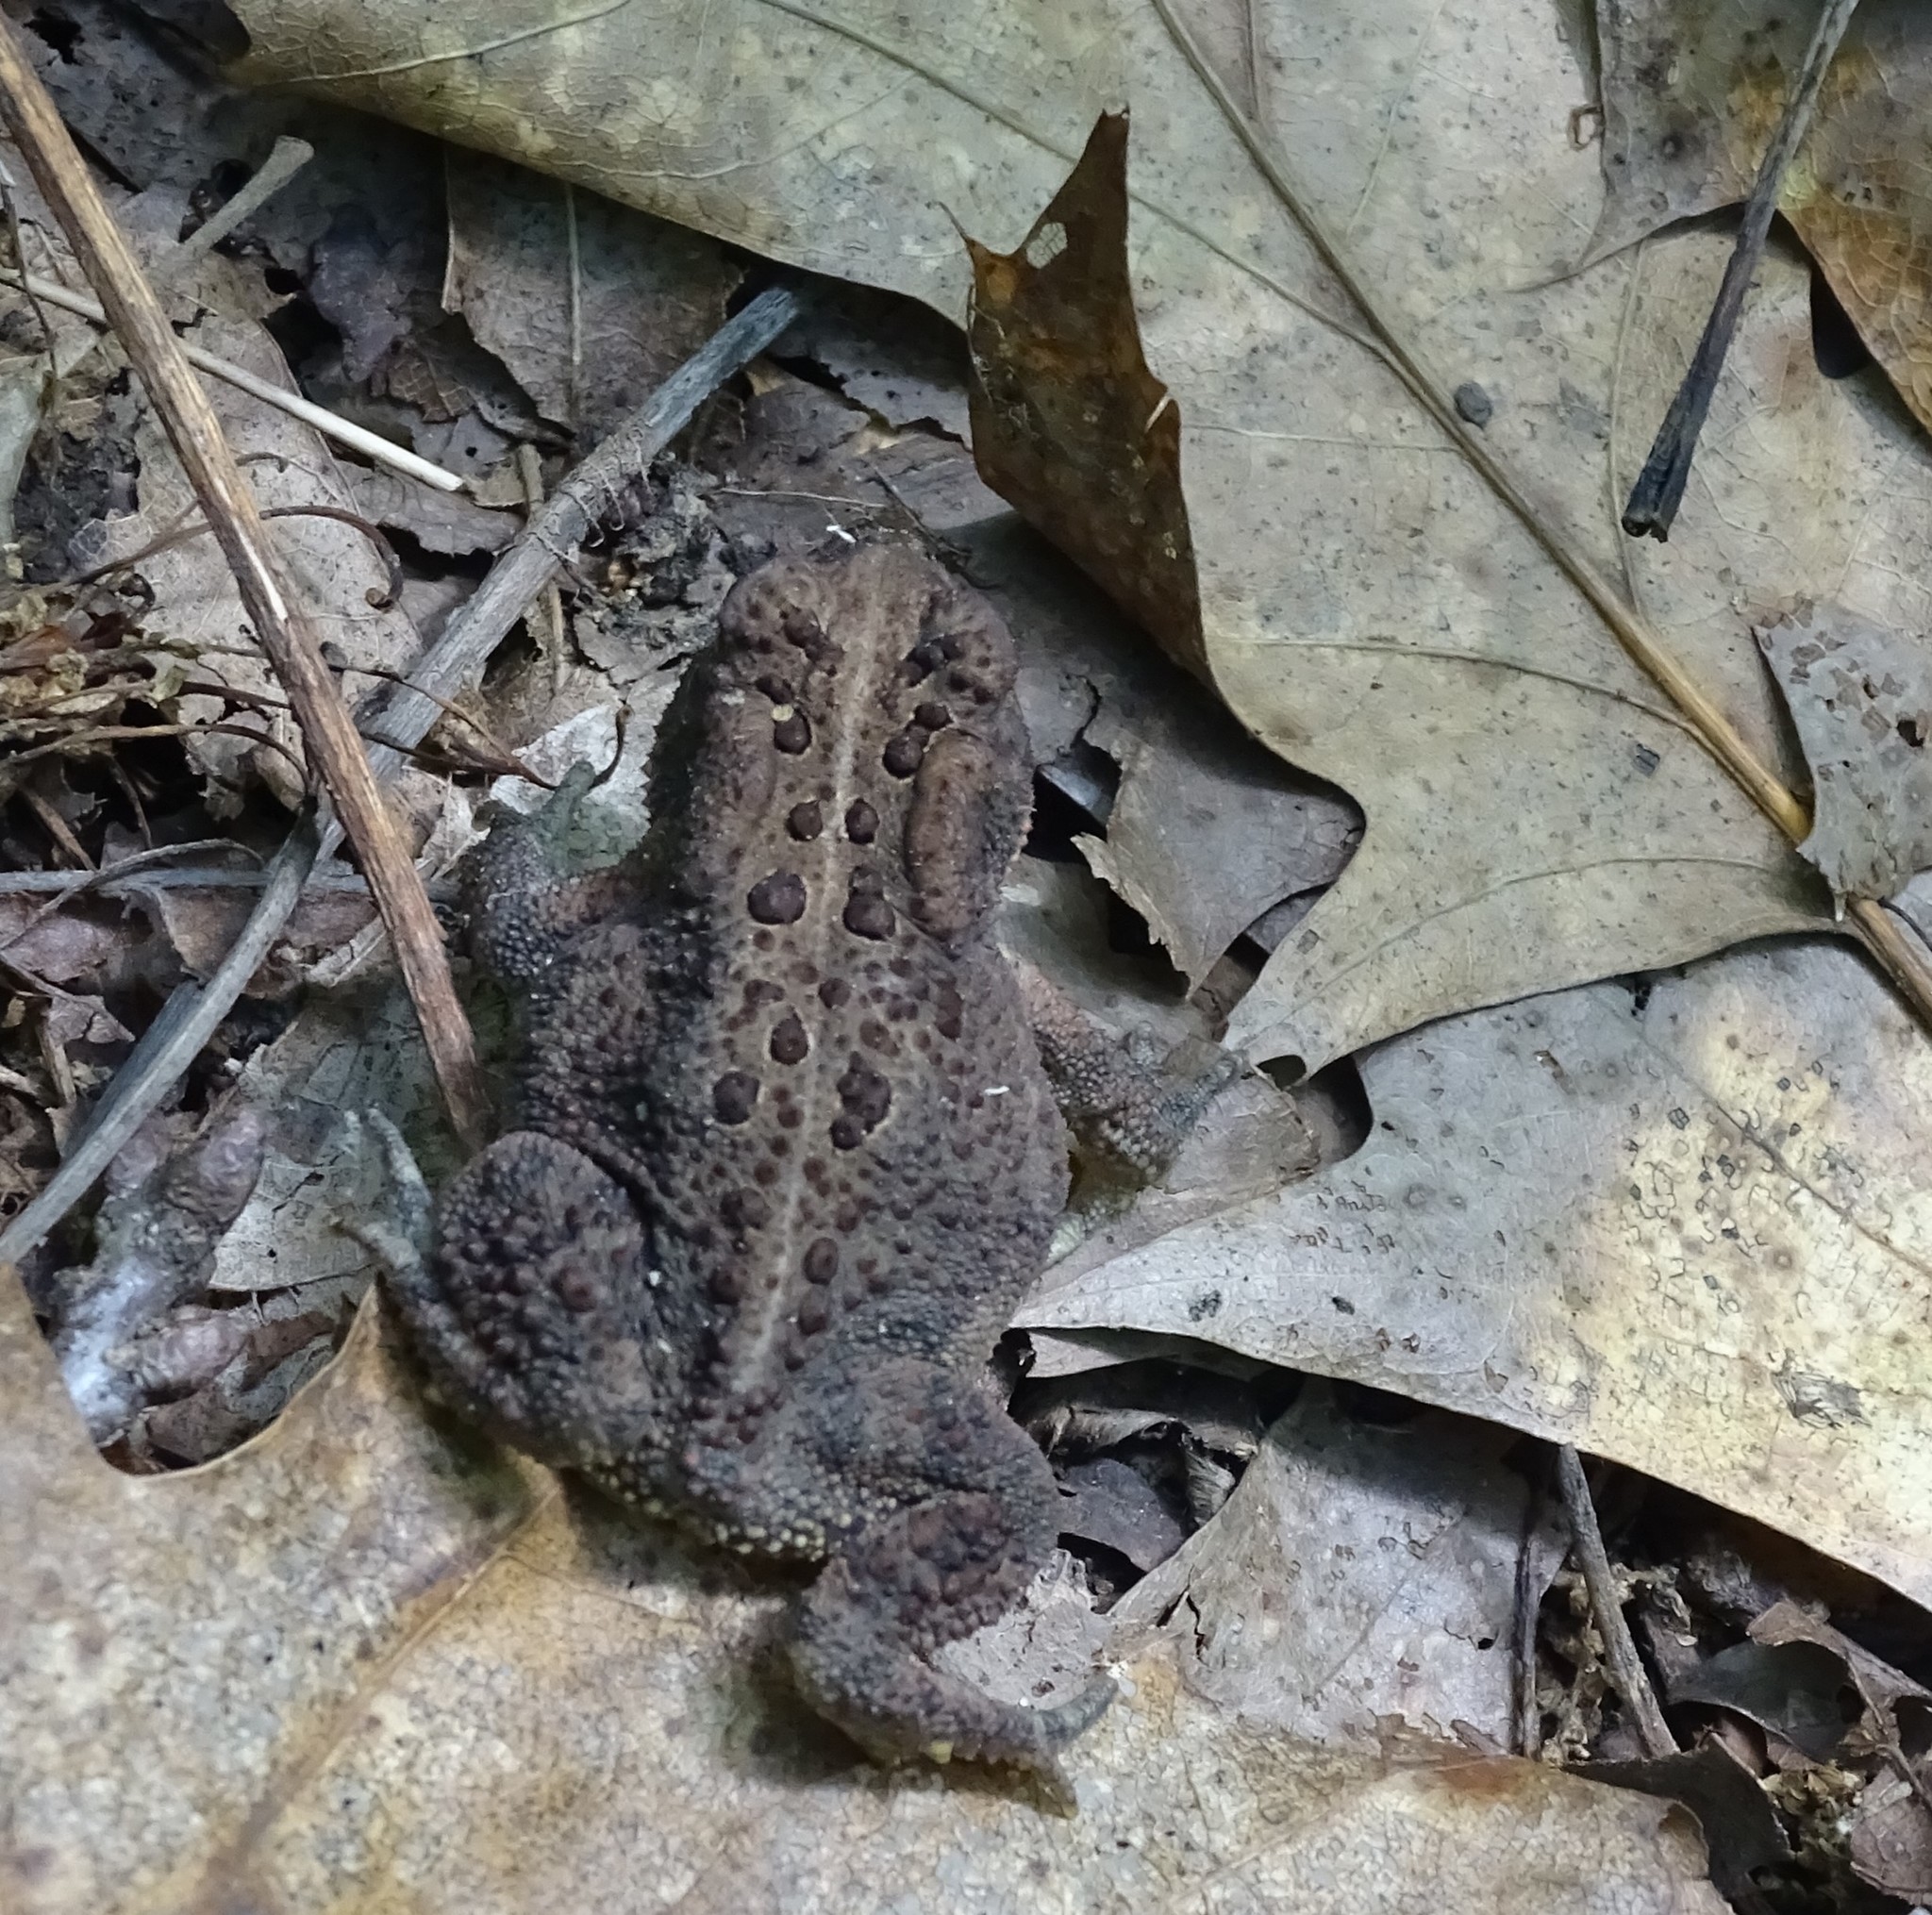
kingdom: Animalia
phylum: Chordata
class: Amphibia
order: Anura
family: Bufonidae
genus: Anaxyrus
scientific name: Anaxyrus americanus
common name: American toad
